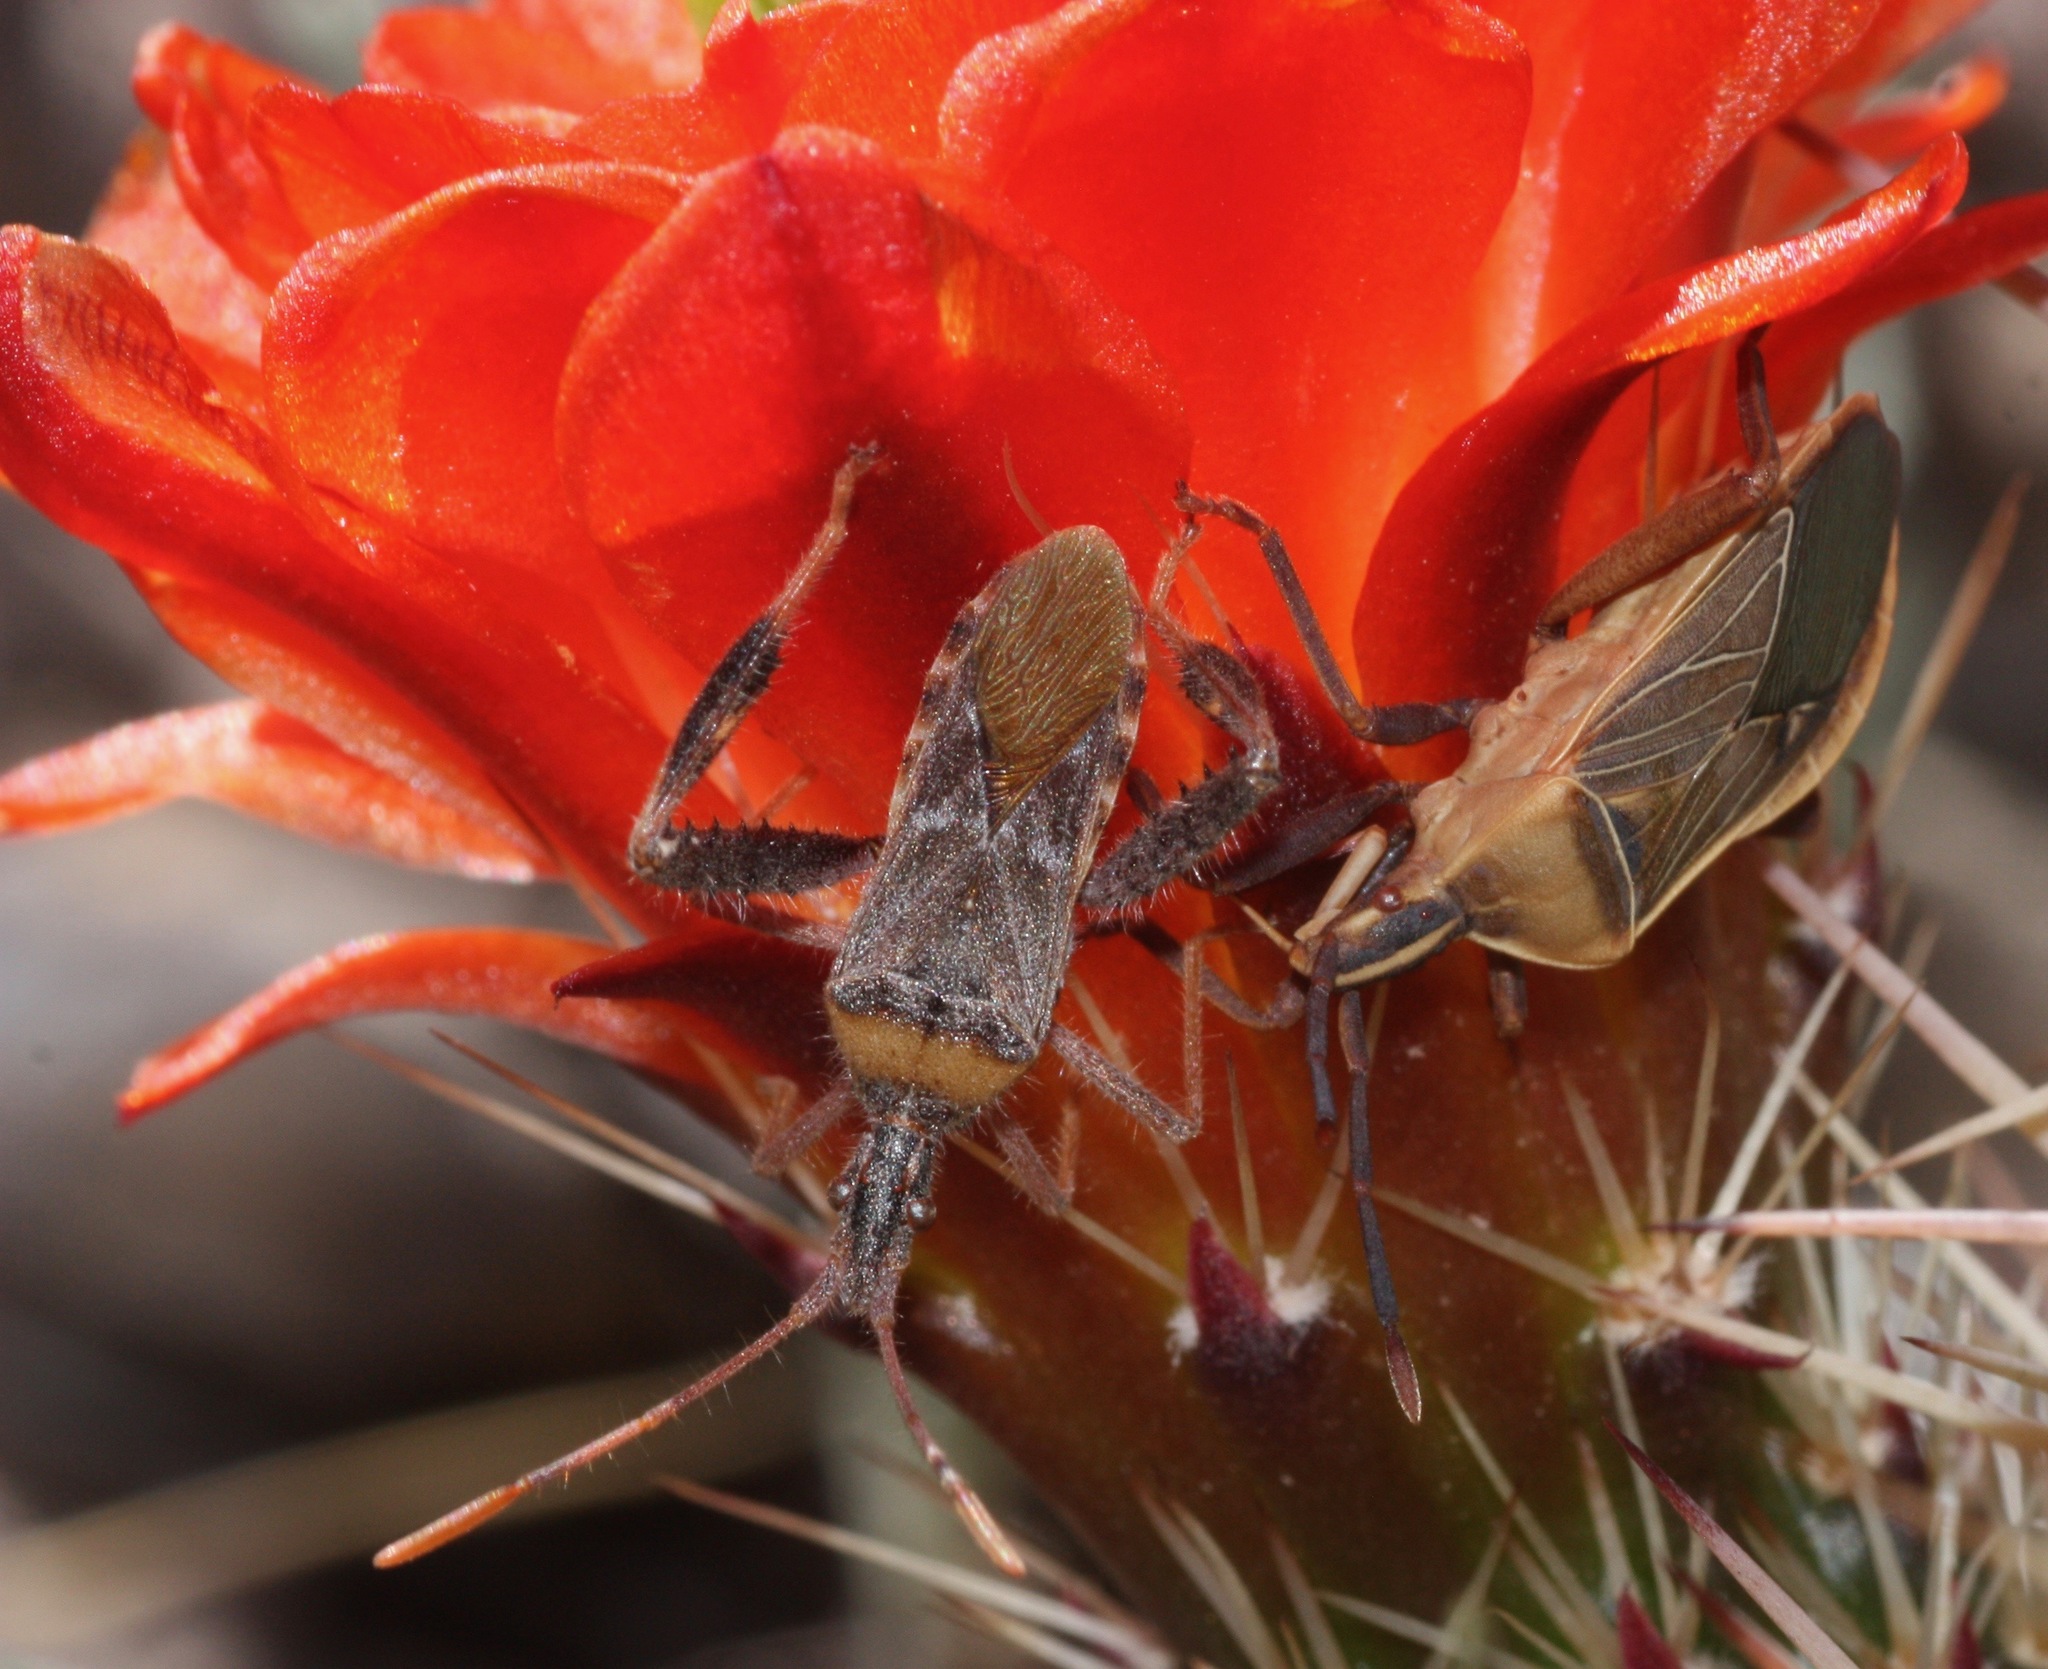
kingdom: Animalia
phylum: Arthropoda
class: Insecta
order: Hemiptera
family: Coreidae
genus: Narnia
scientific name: Narnia femorata
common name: Leaf-footed cactus bug
